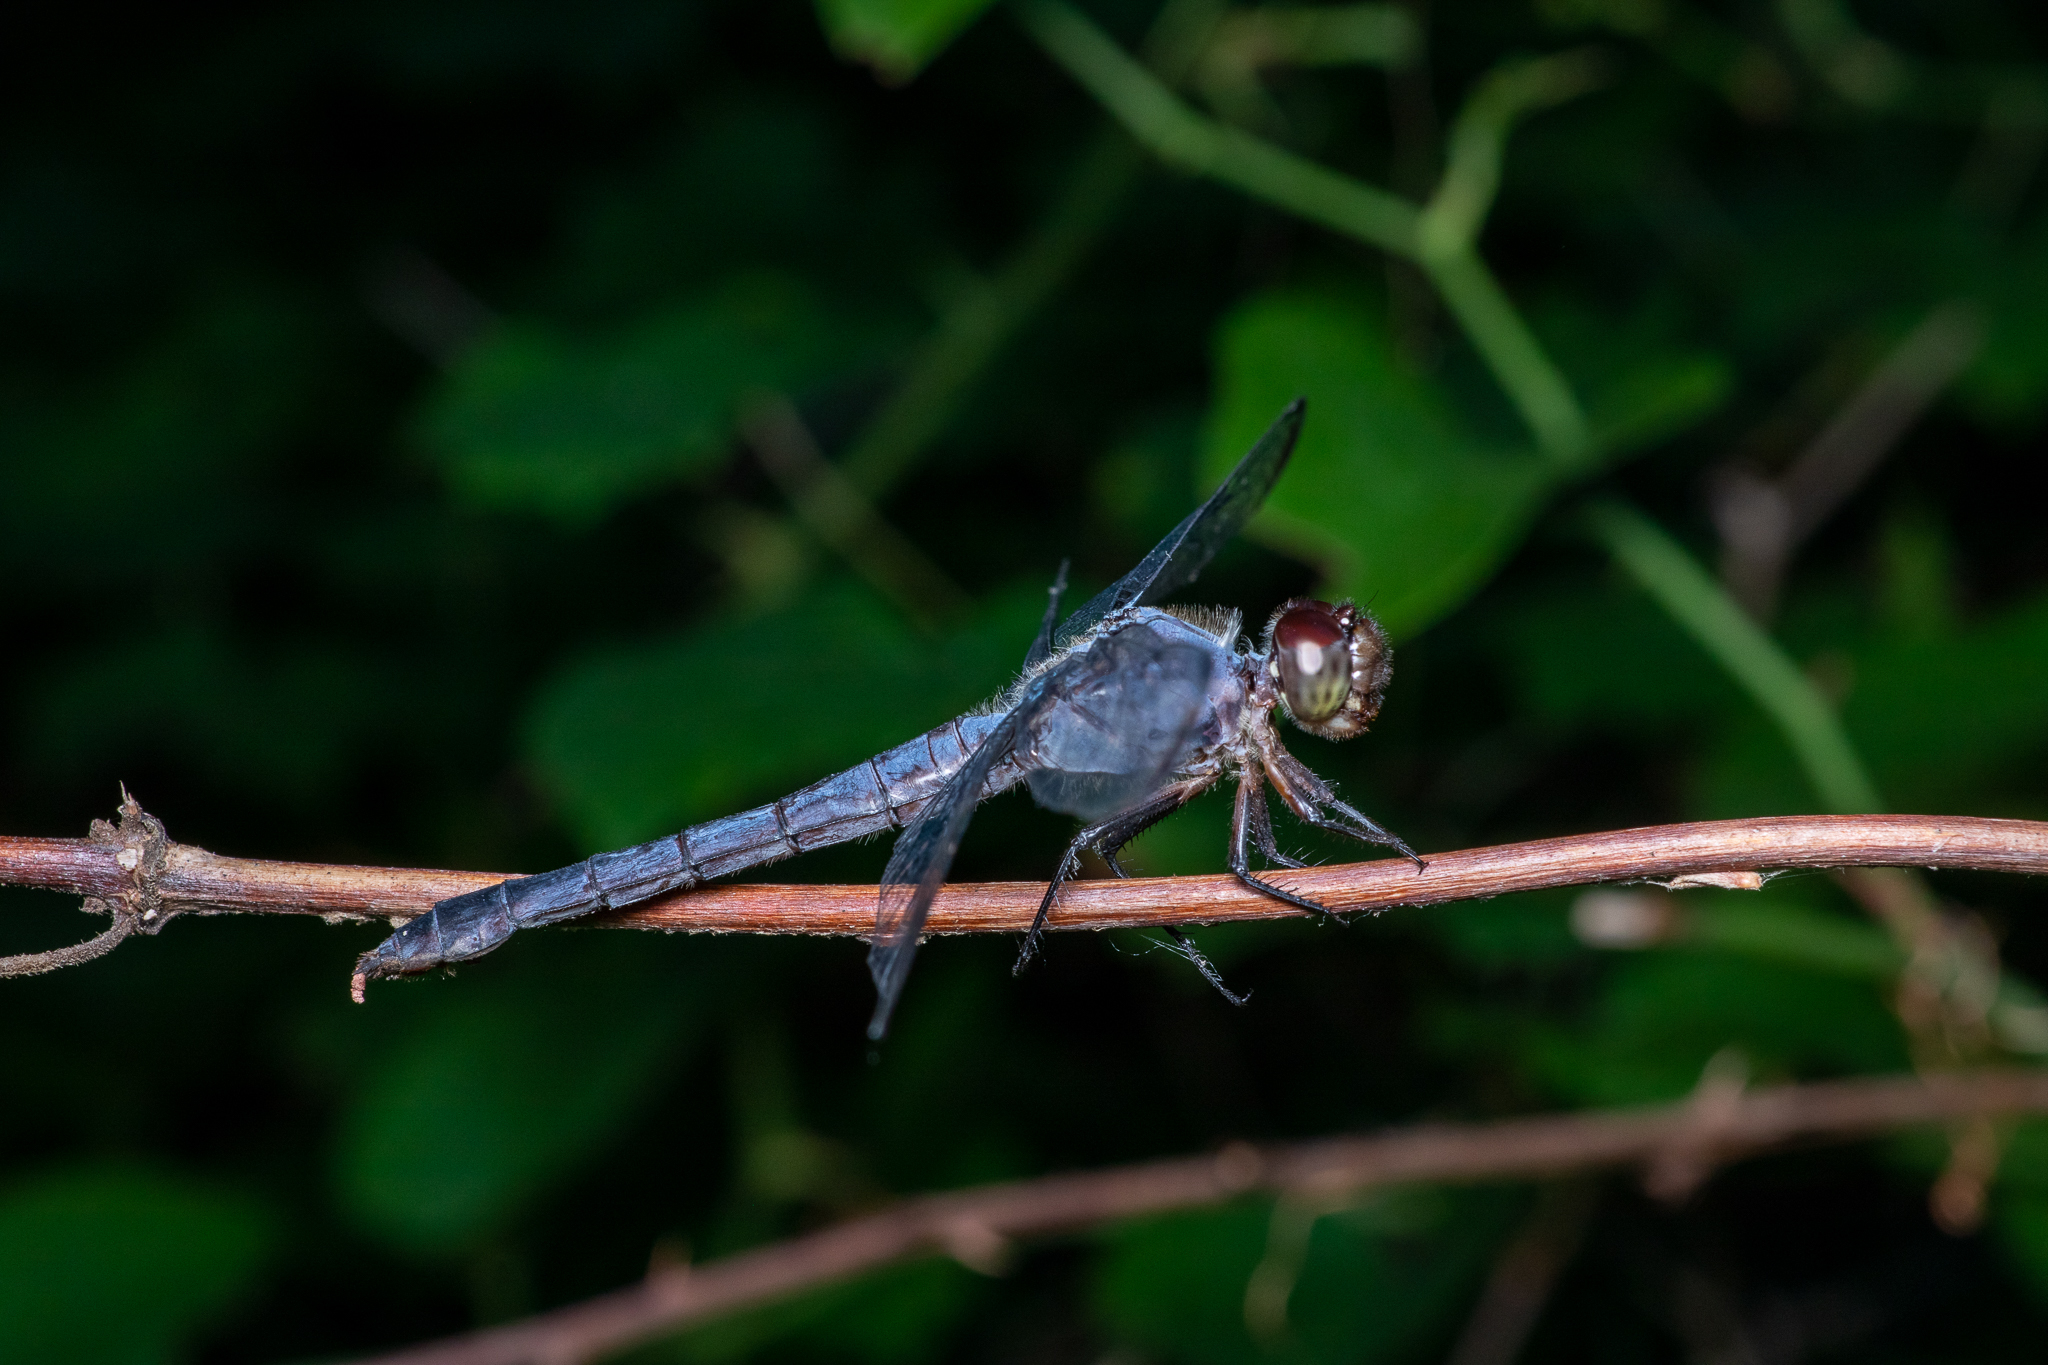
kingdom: Animalia
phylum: Arthropoda
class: Insecta
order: Odonata
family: Libellulidae
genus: Libellula
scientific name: Libellula incesta
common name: Slaty skimmer
